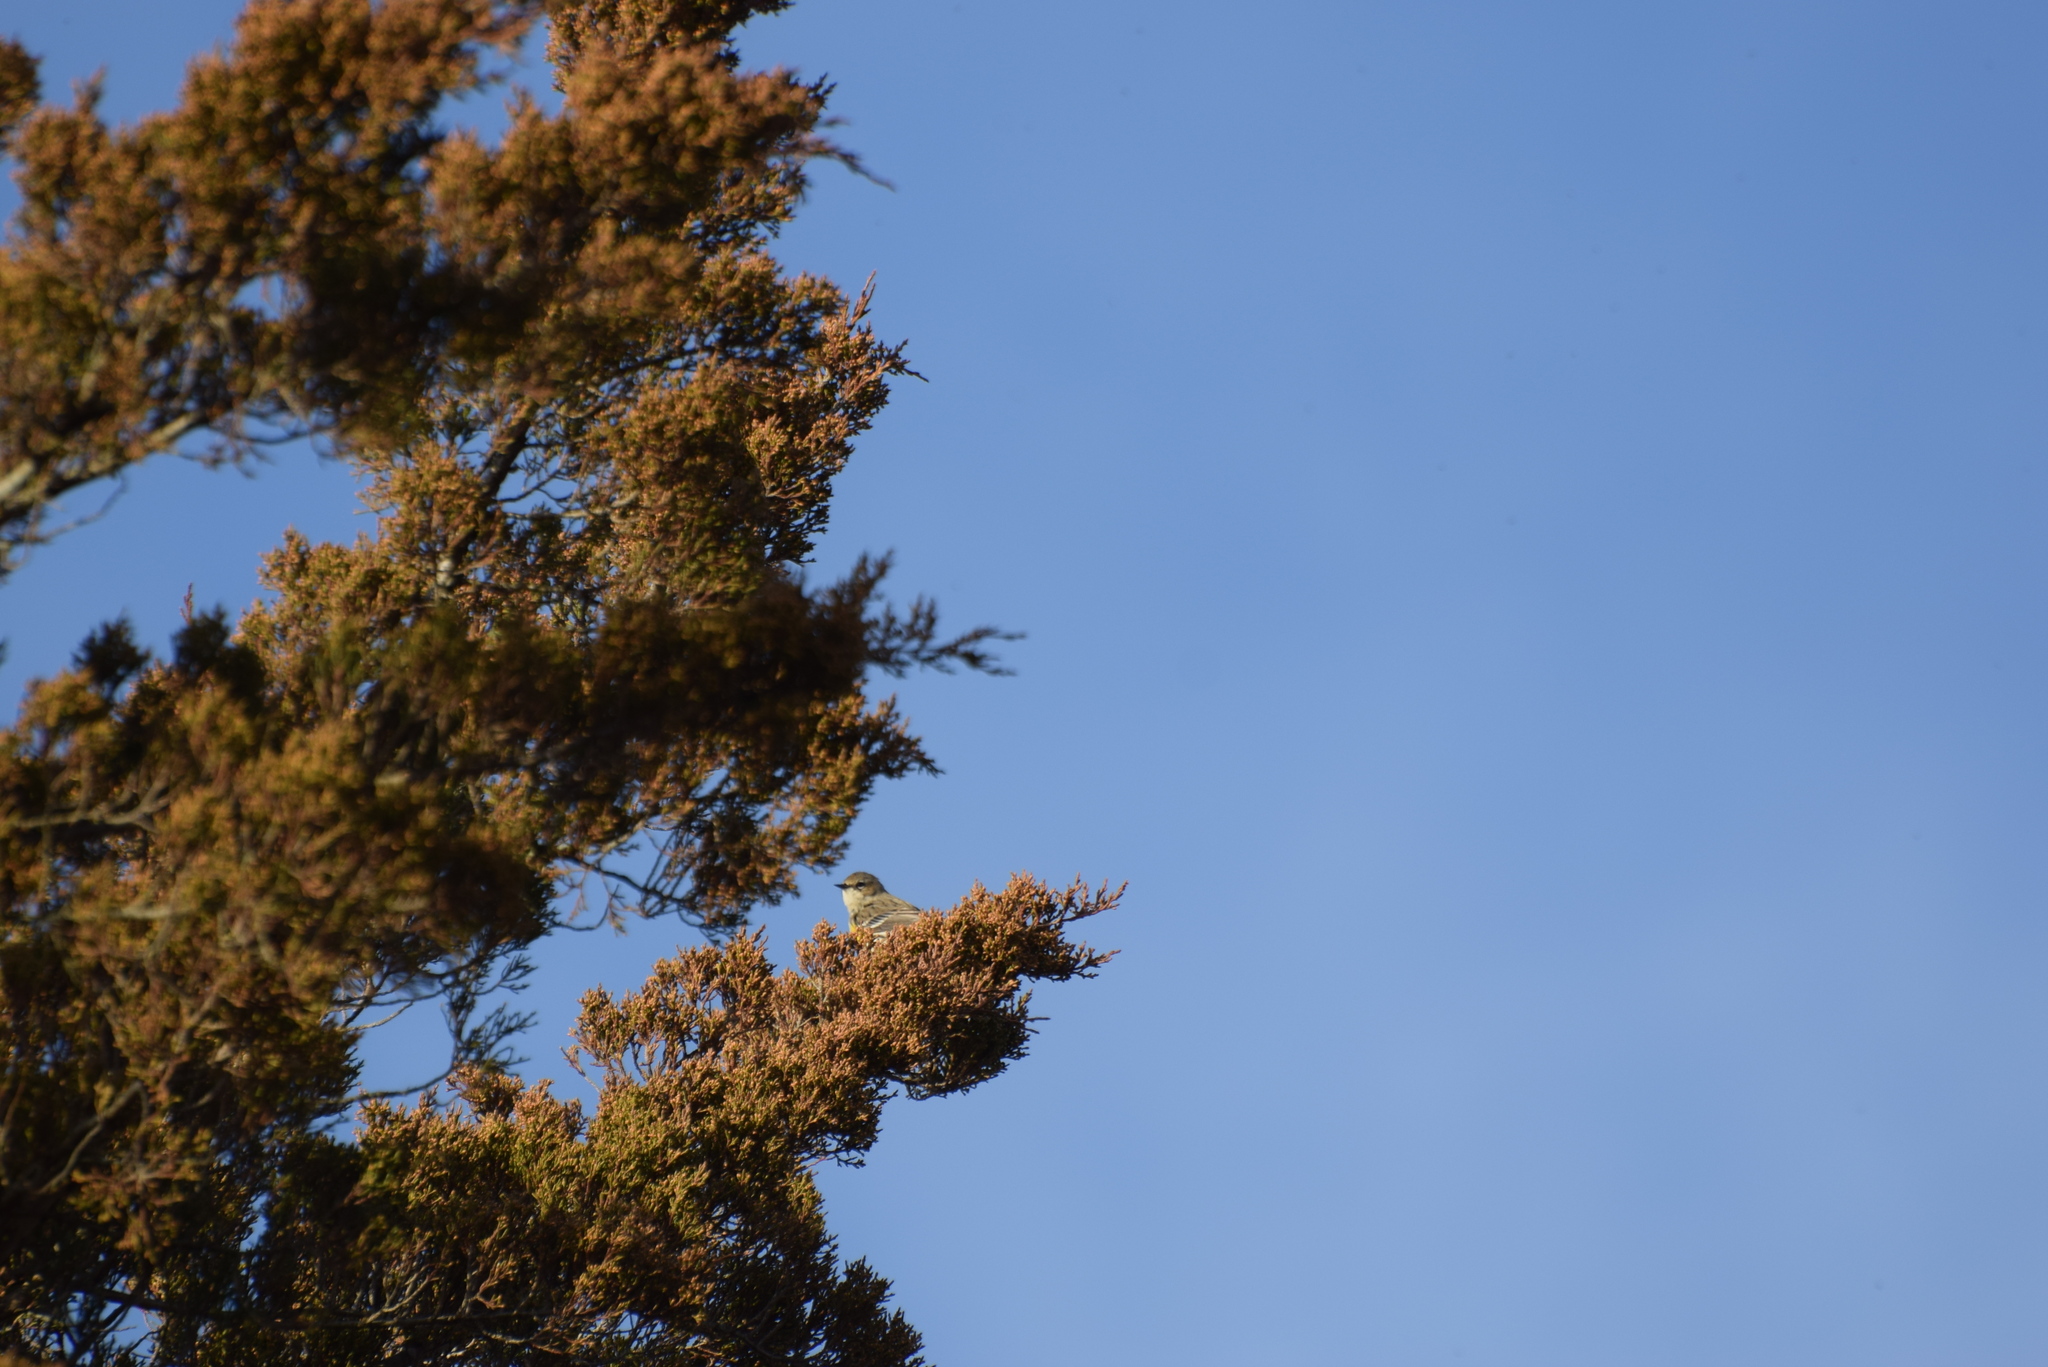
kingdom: Animalia
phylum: Chordata
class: Aves
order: Passeriformes
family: Parulidae
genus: Setophaga
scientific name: Setophaga coronata
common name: Myrtle warbler
